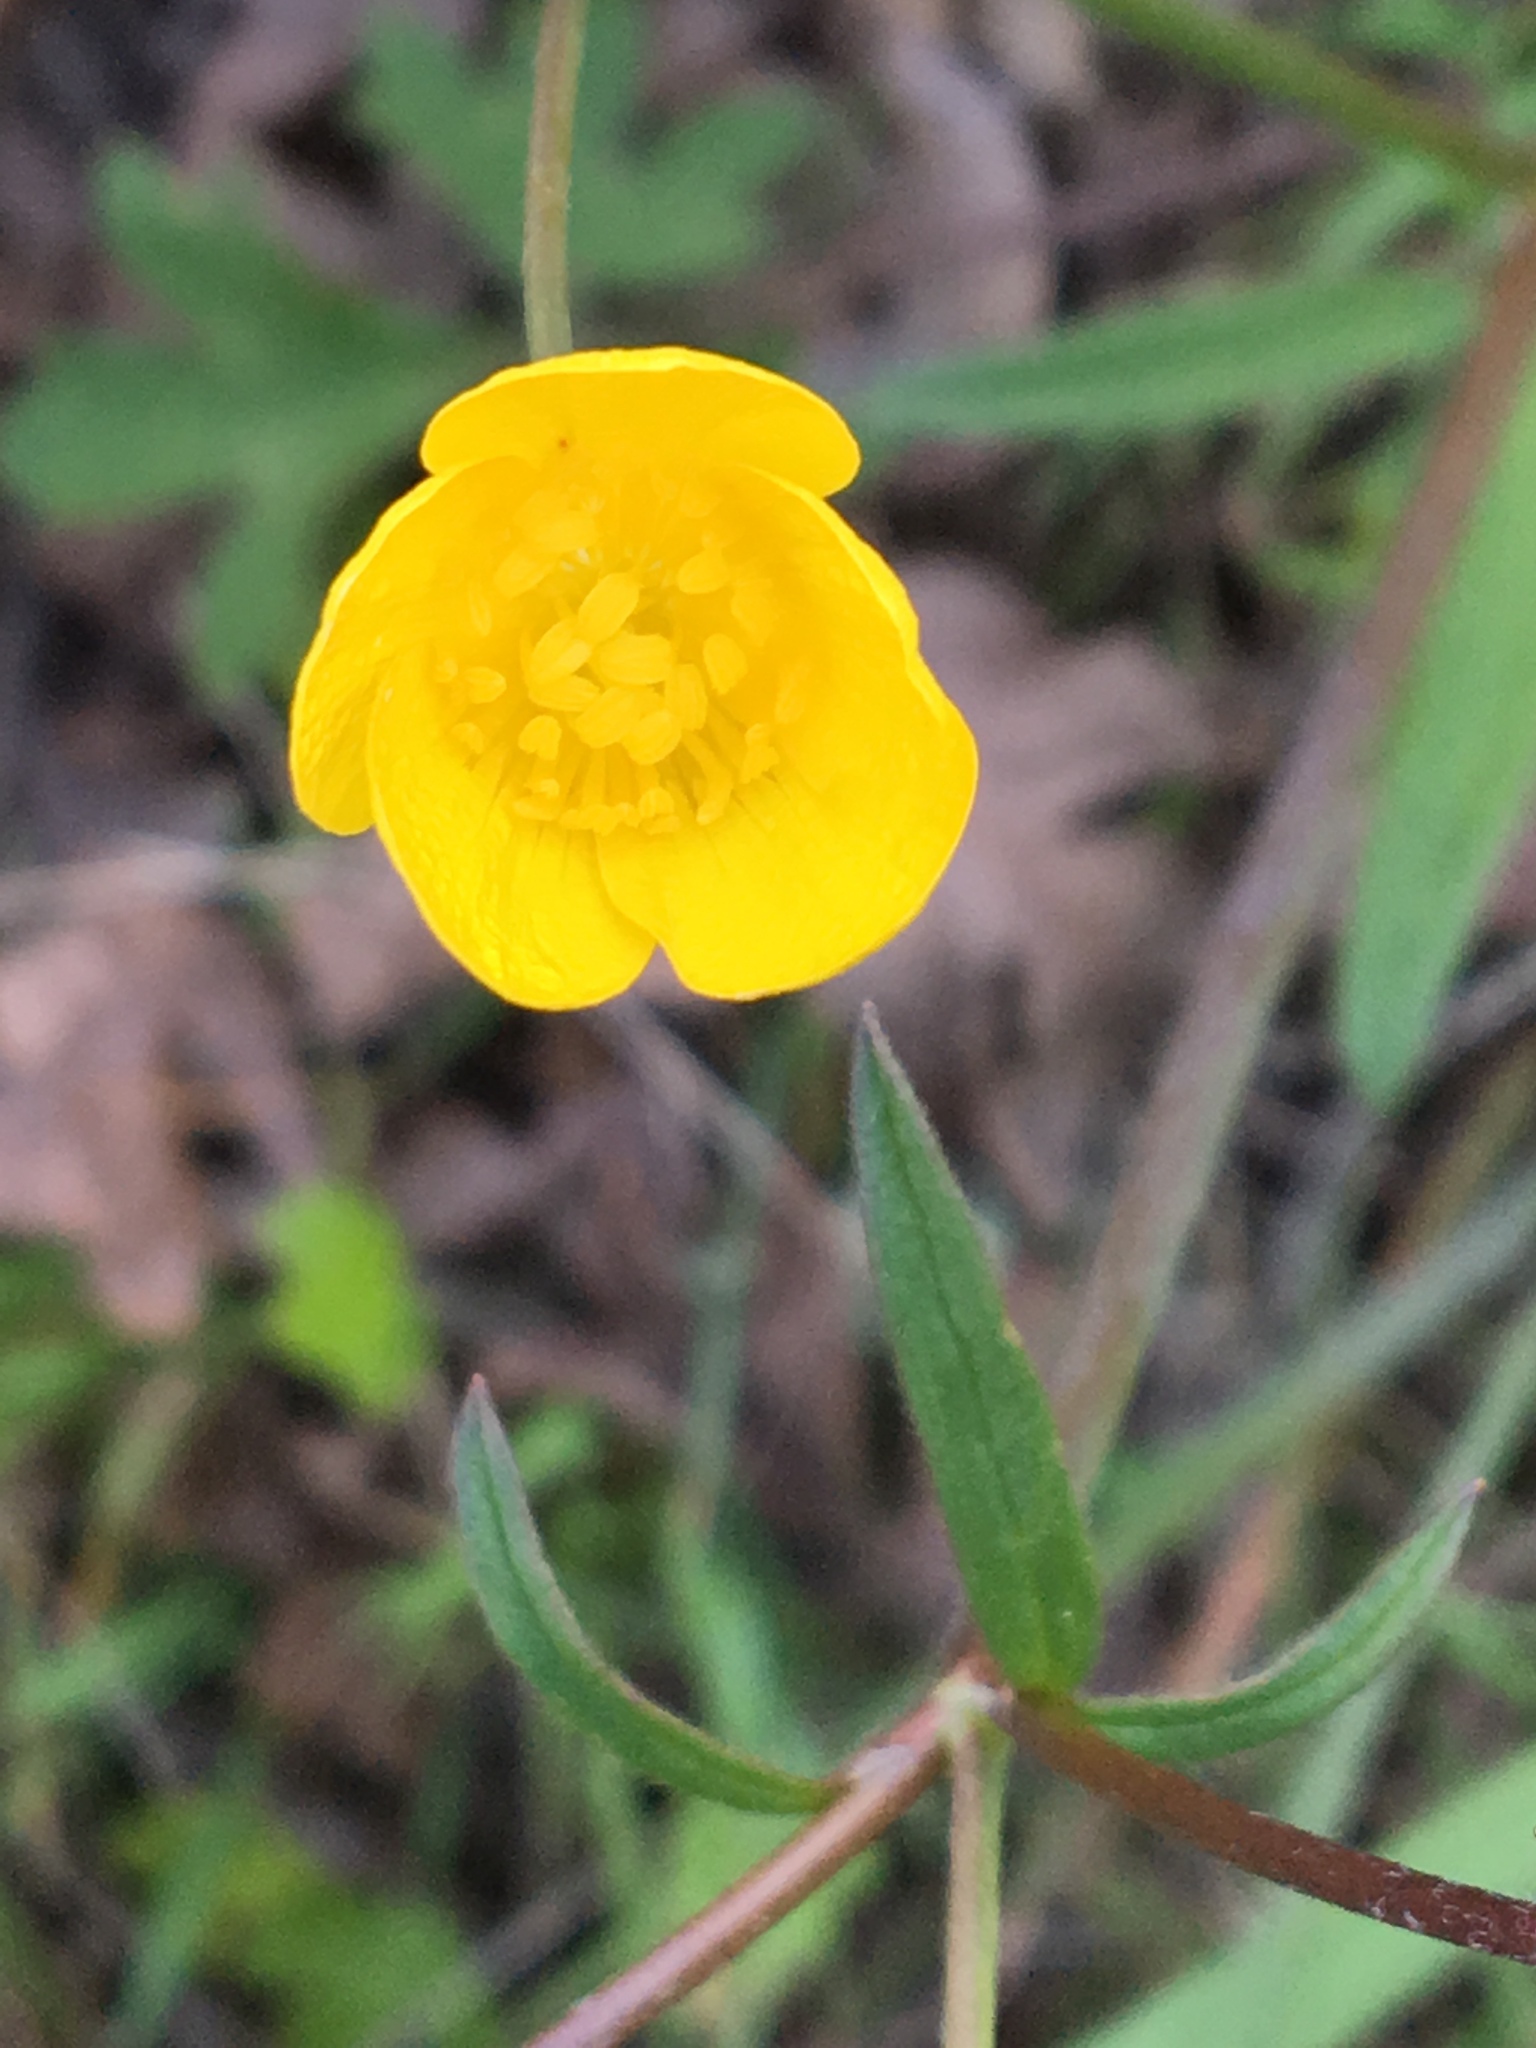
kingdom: Plantae
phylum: Tracheophyta
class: Magnoliopsida
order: Ranunculales
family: Ranunculaceae
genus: Ranunculus
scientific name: Ranunculus occidentalis
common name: Western buttercup
